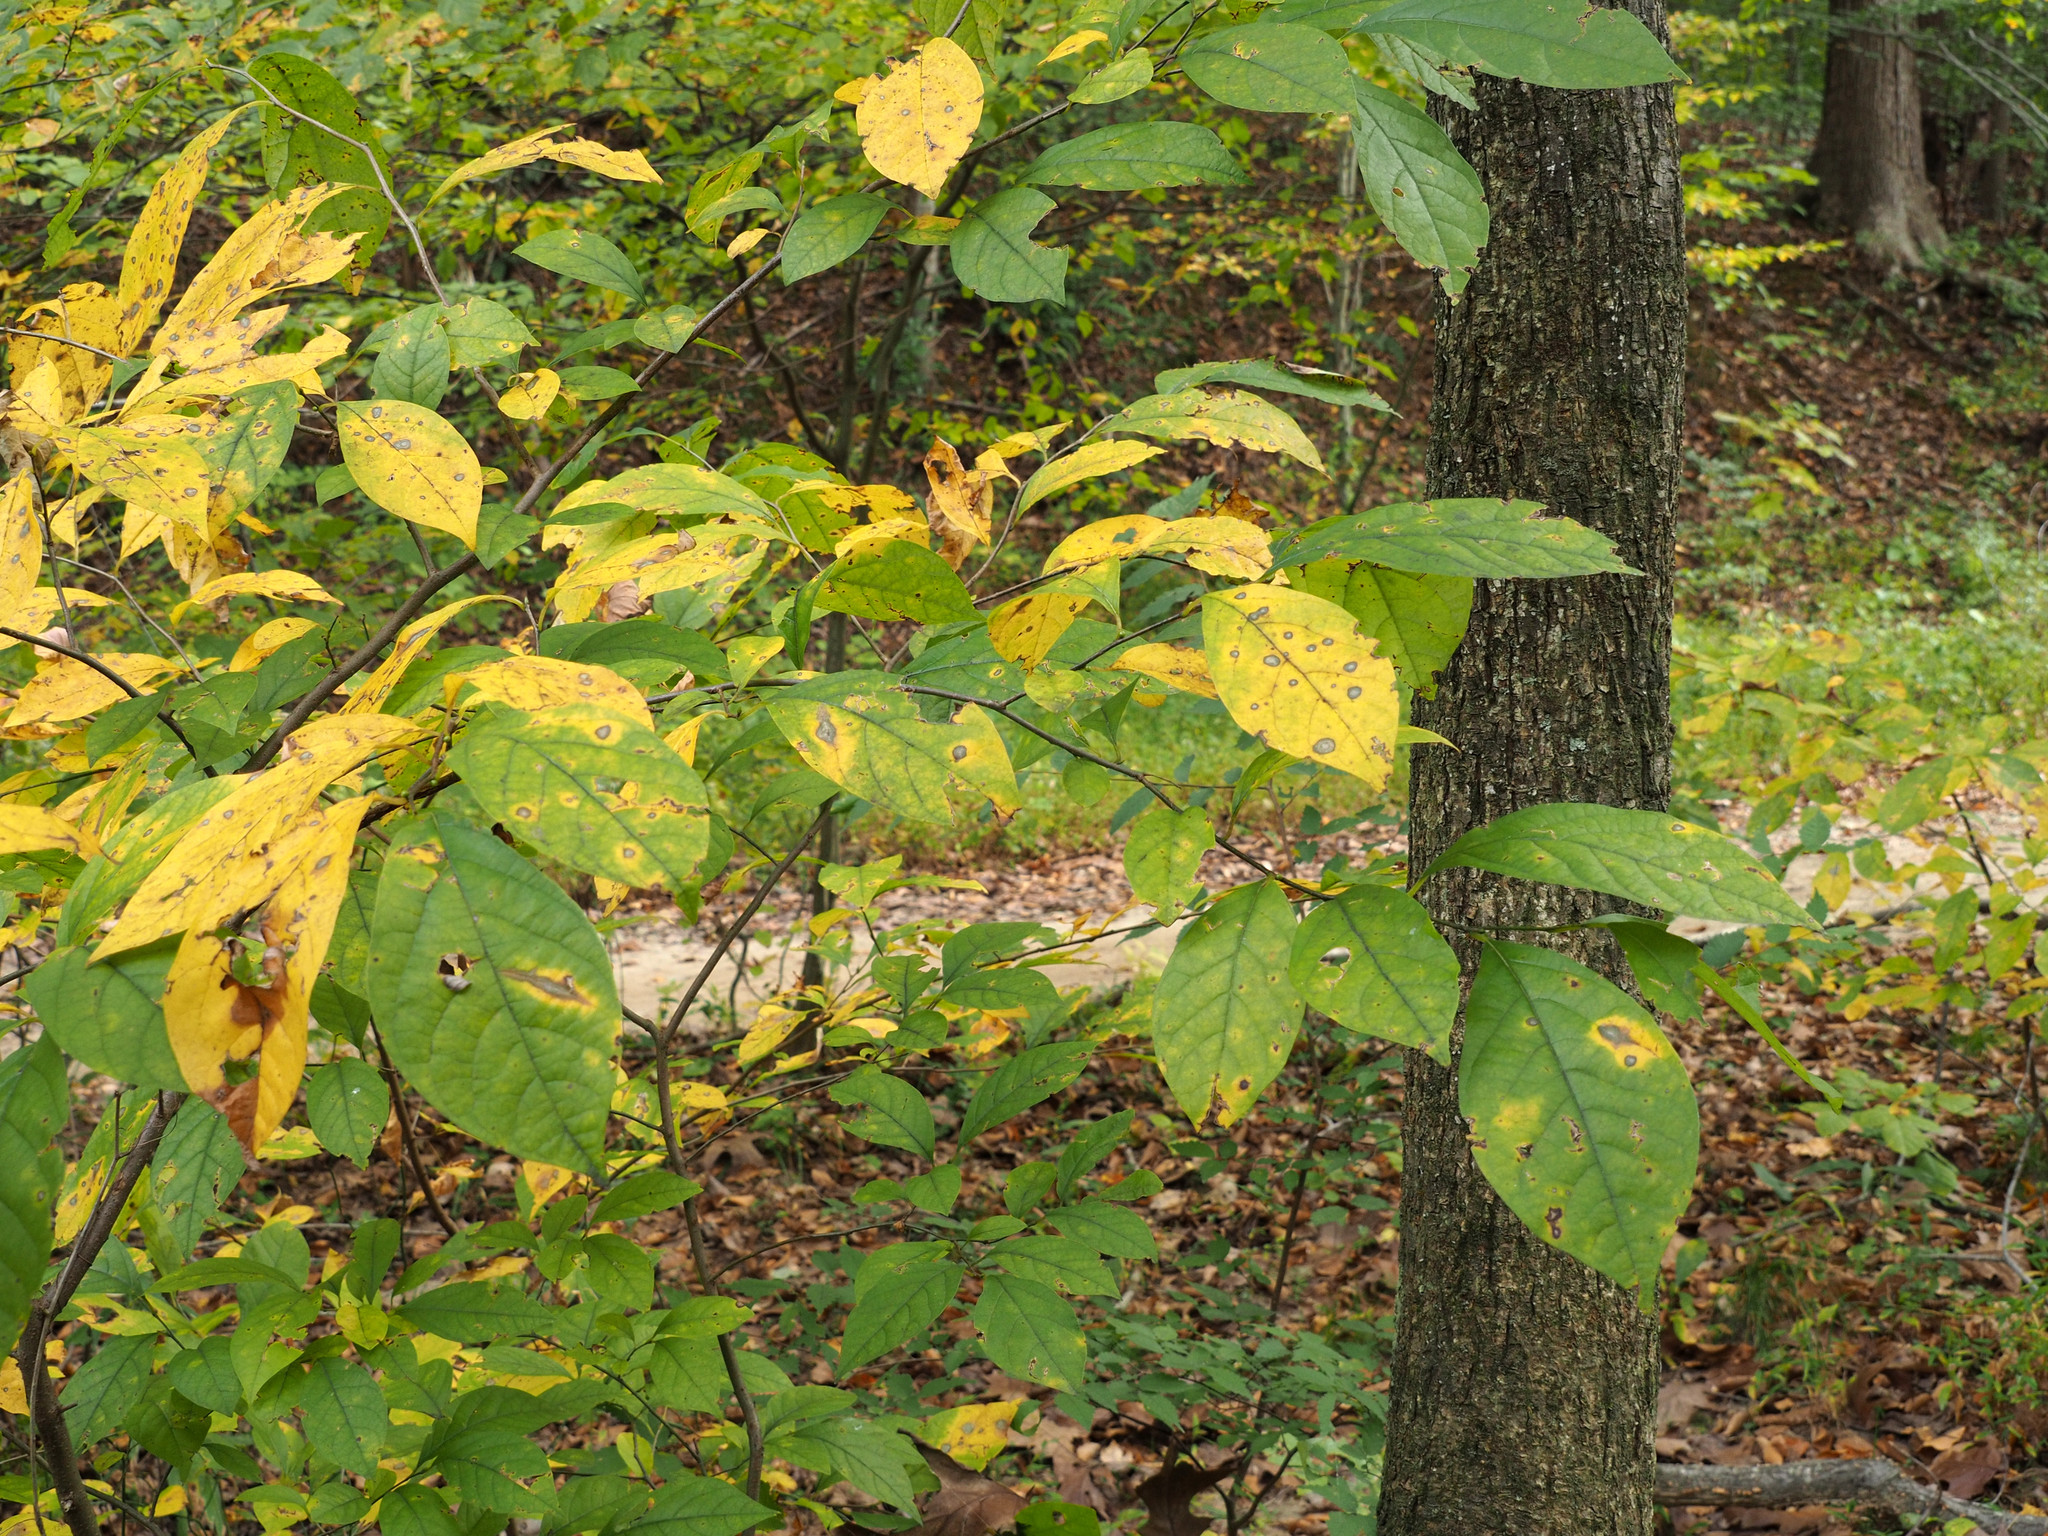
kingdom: Plantae
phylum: Tracheophyta
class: Magnoliopsida
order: Laurales
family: Lauraceae
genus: Lindera
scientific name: Lindera benzoin
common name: Spicebush
